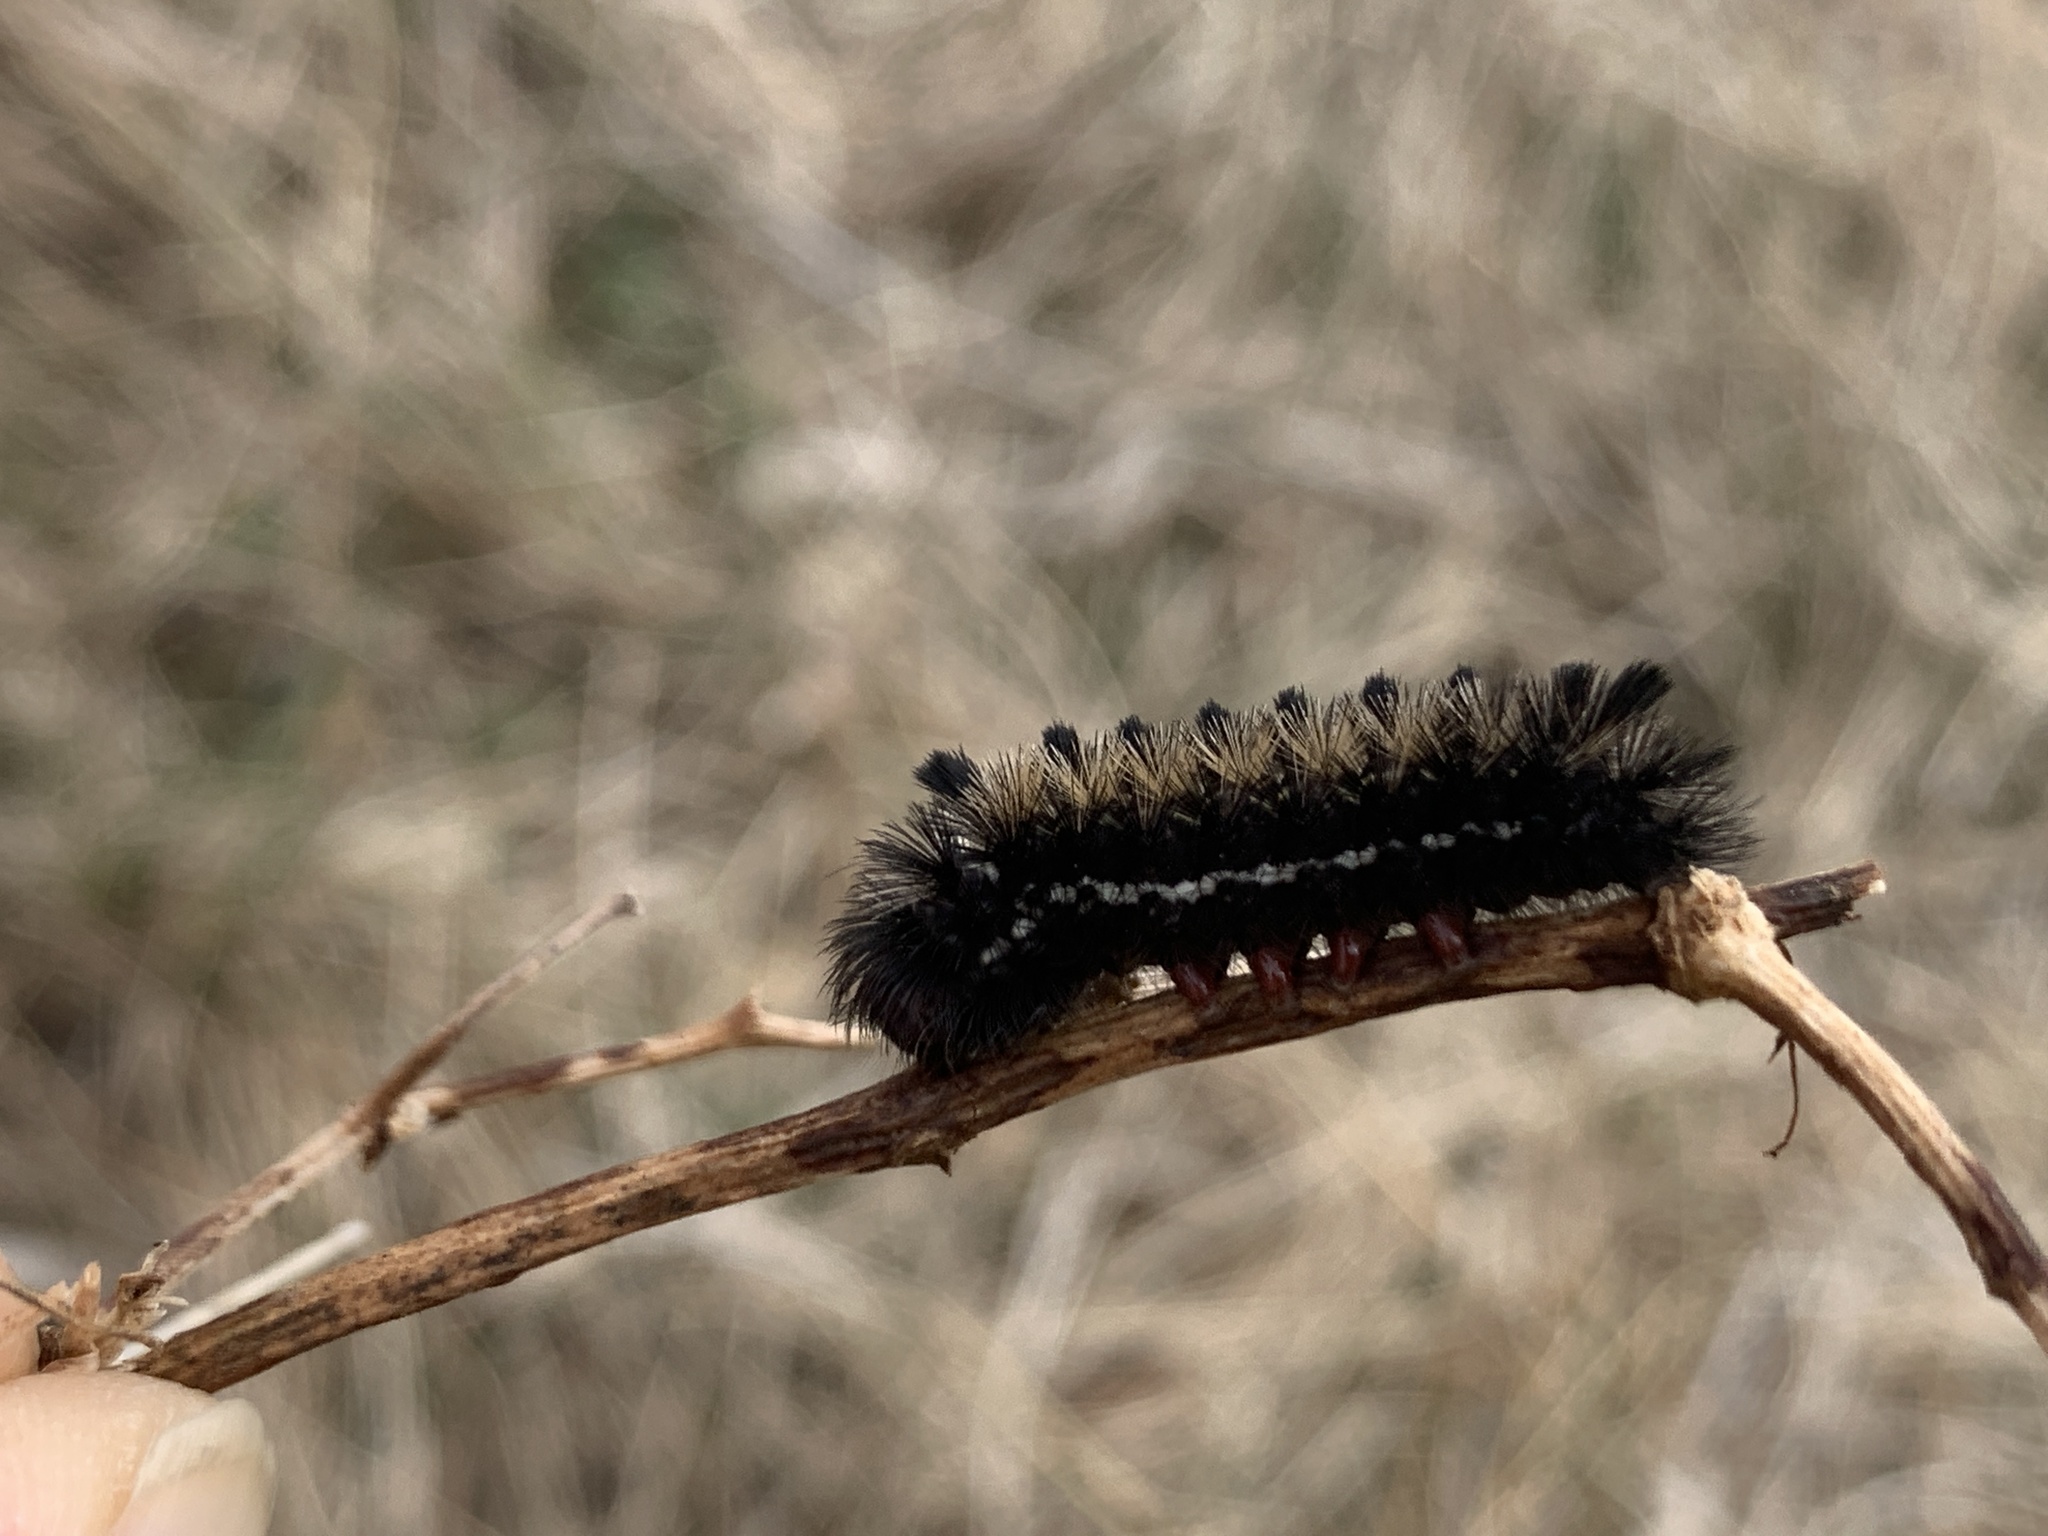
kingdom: Animalia
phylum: Arthropoda
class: Insecta
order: Lepidoptera
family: Erebidae
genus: Ctenucha
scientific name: Ctenucha virginica
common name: Virginia ctenucha moth
